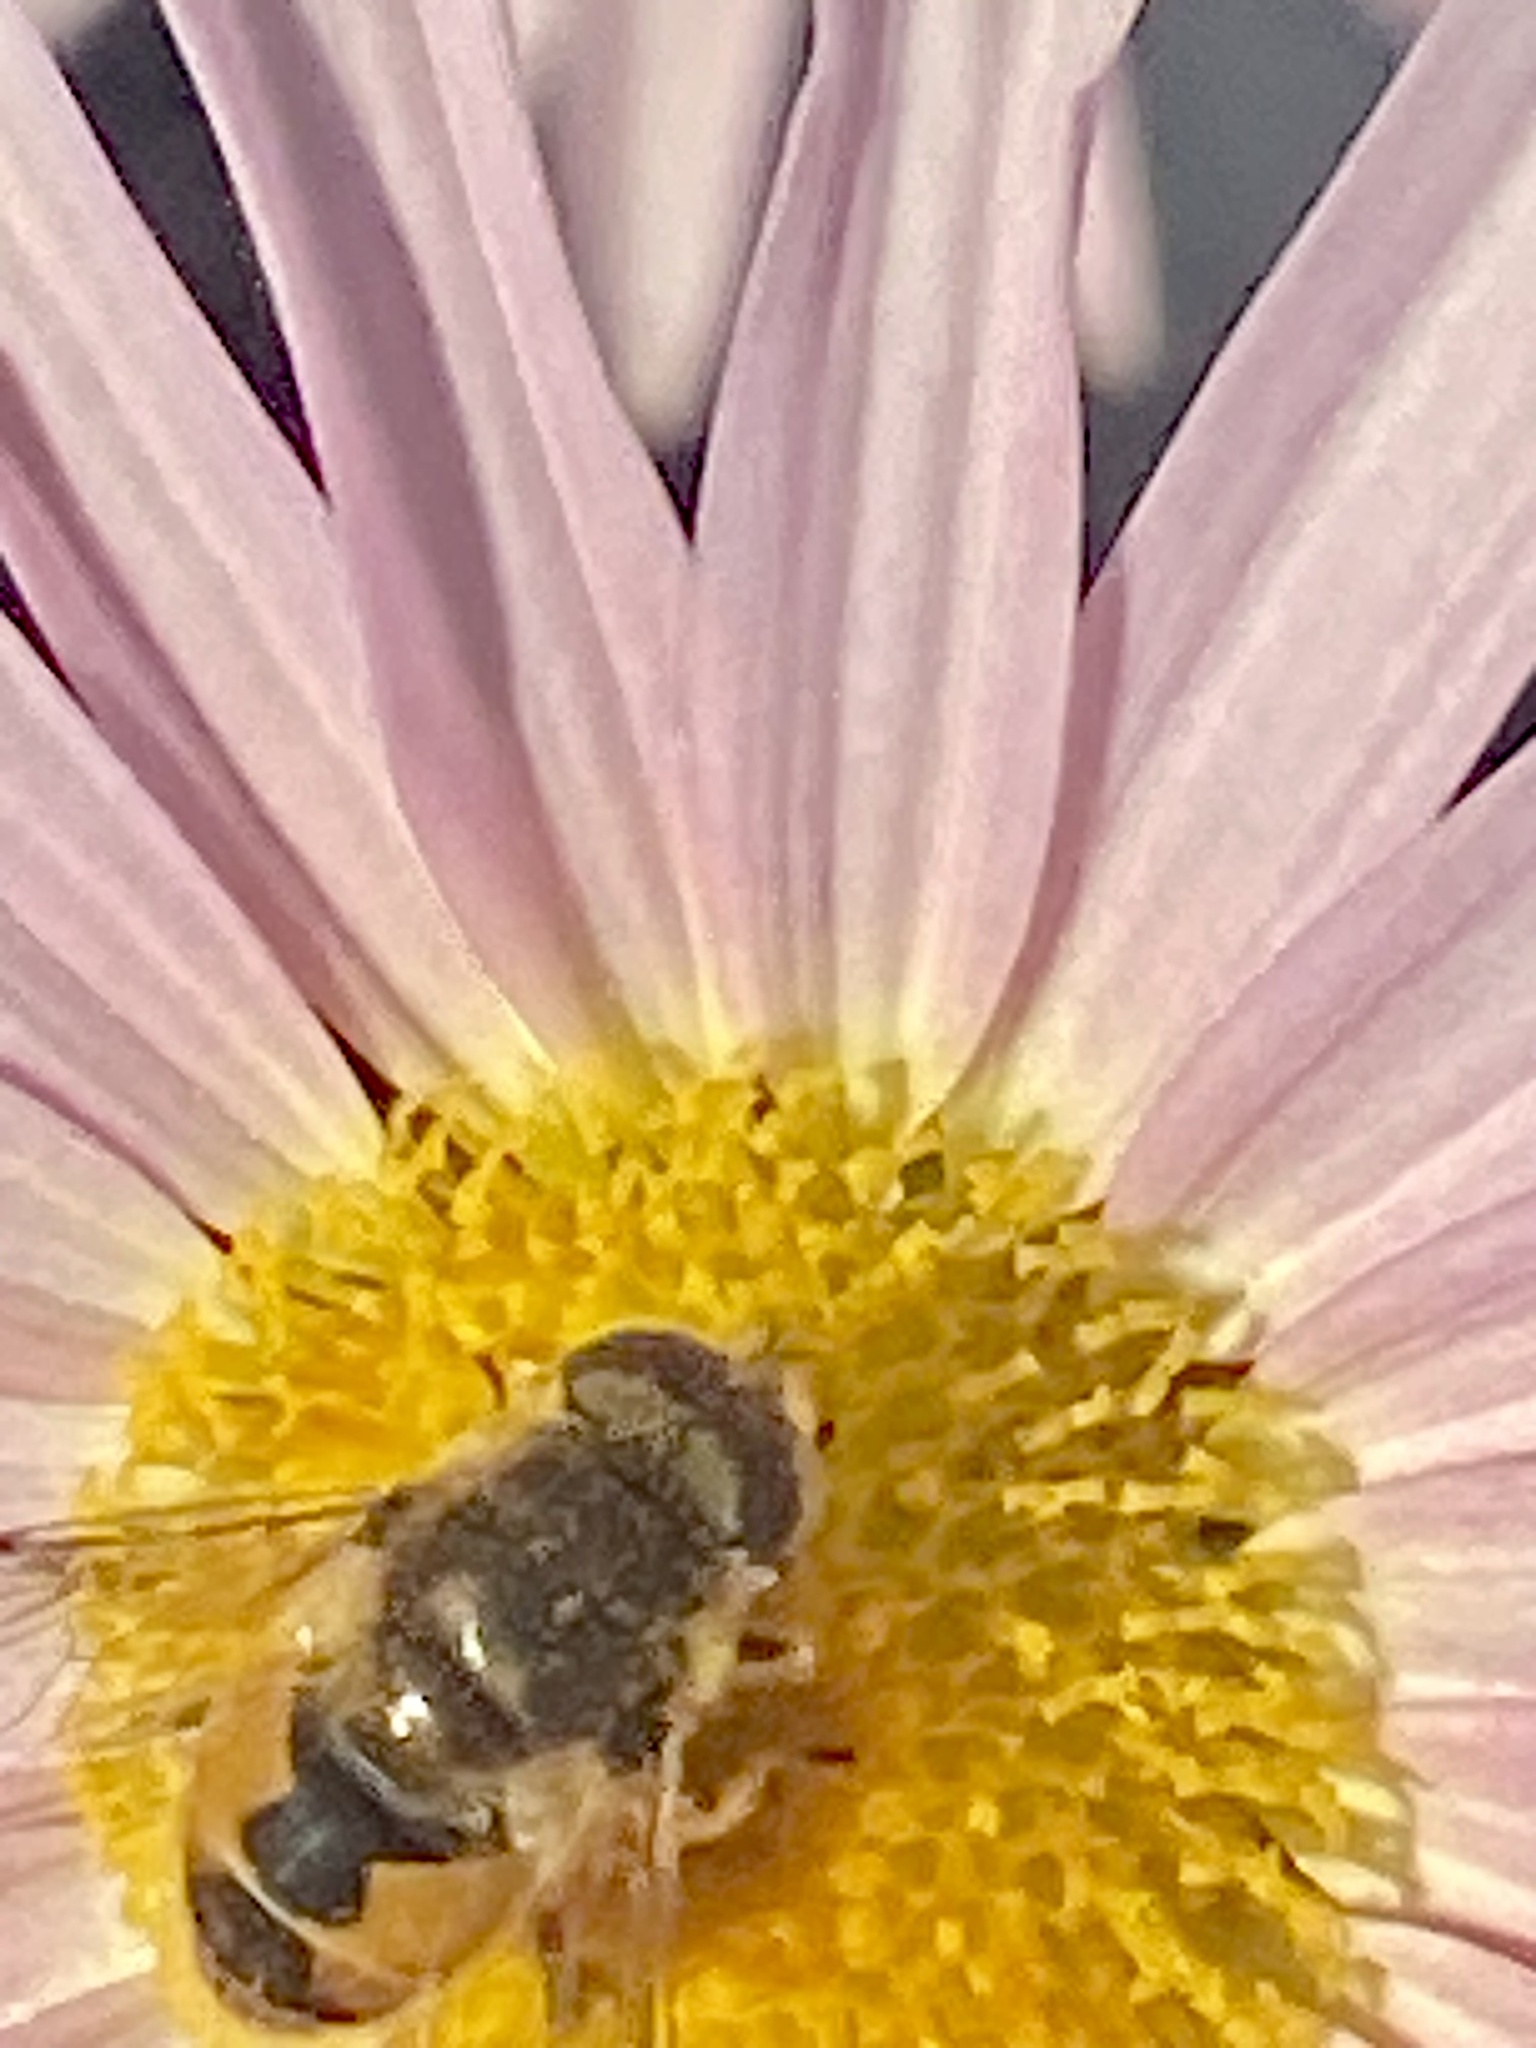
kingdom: Animalia
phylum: Arthropoda
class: Insecta
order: Diptera
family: Syrphidae
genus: Eristalis
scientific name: Eristalis arbustorum
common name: Hover fly
